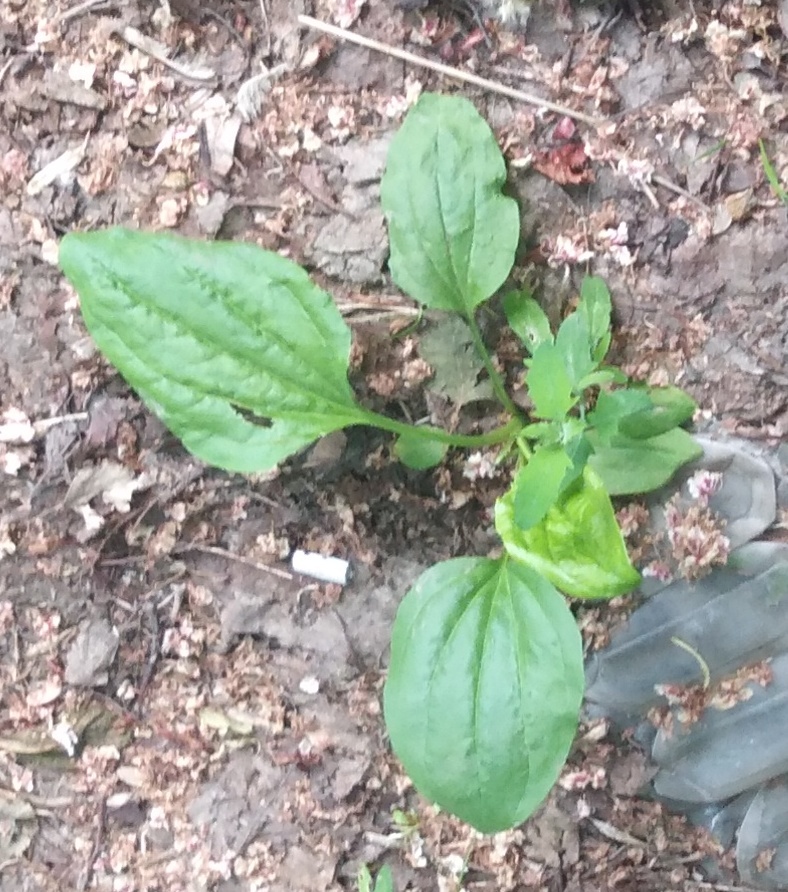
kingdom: Plantae
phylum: Tracheophyta
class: Magnoliopsida
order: Lamiales
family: Plantaginaceae
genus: Plantago
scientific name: Plantago major
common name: Common plantain
